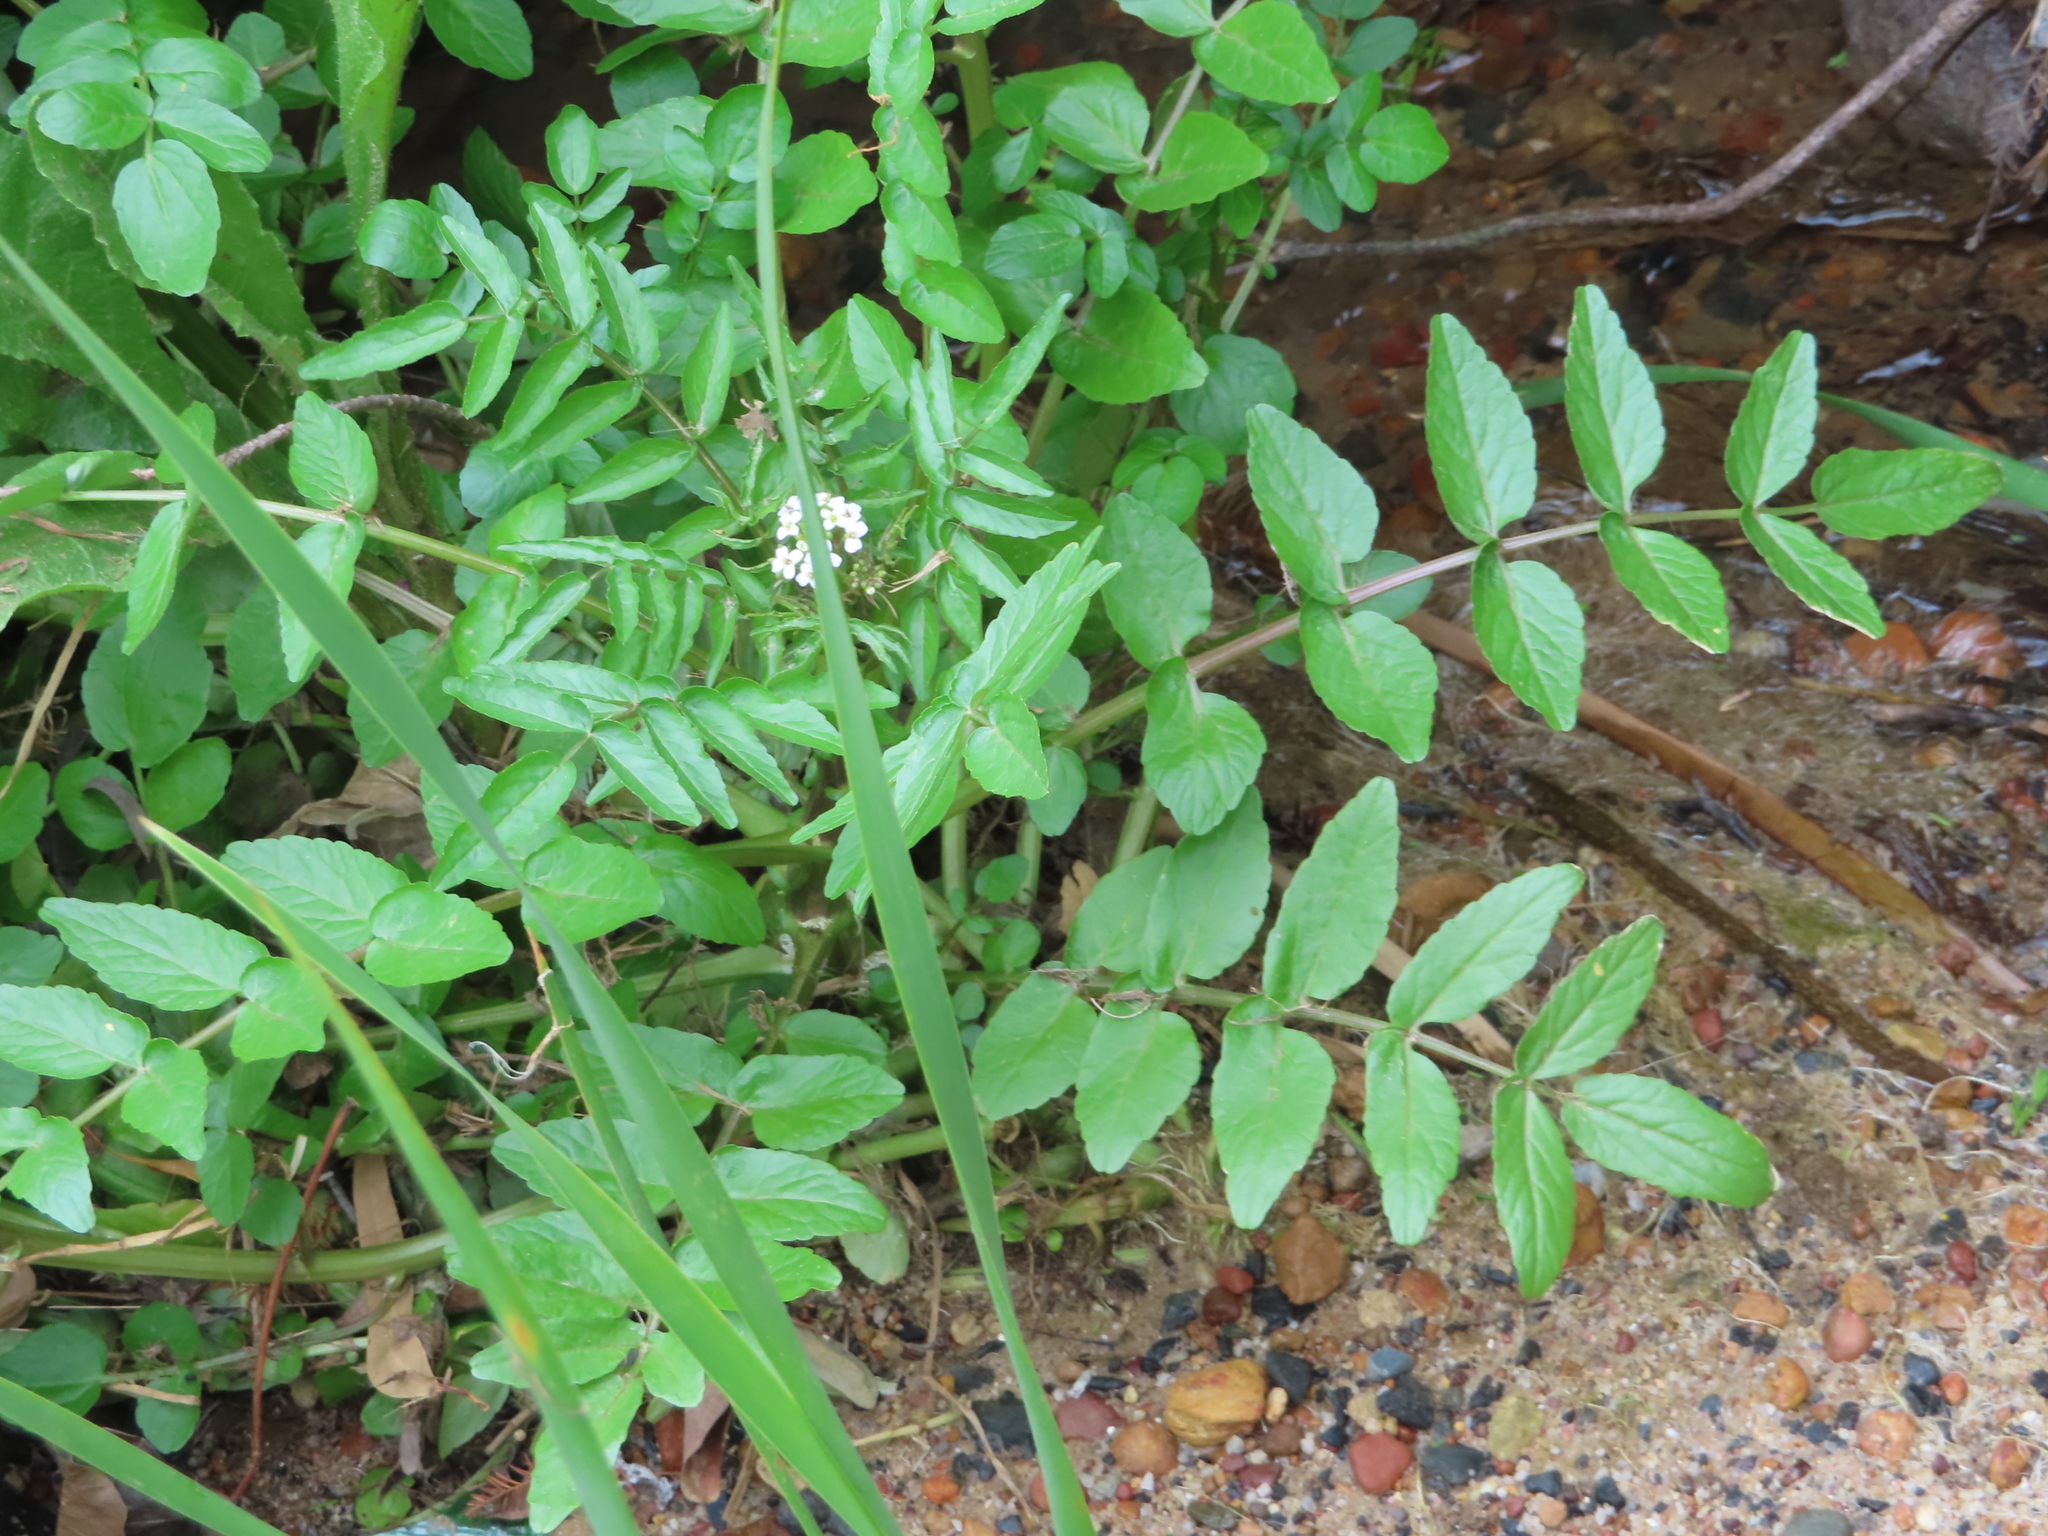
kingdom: Plantae
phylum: Tracheophyta
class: Magnoliopsida
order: Brassicales
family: Brassicaceae
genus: Nasturtium
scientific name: Nasturtium officinale
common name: Watercress
